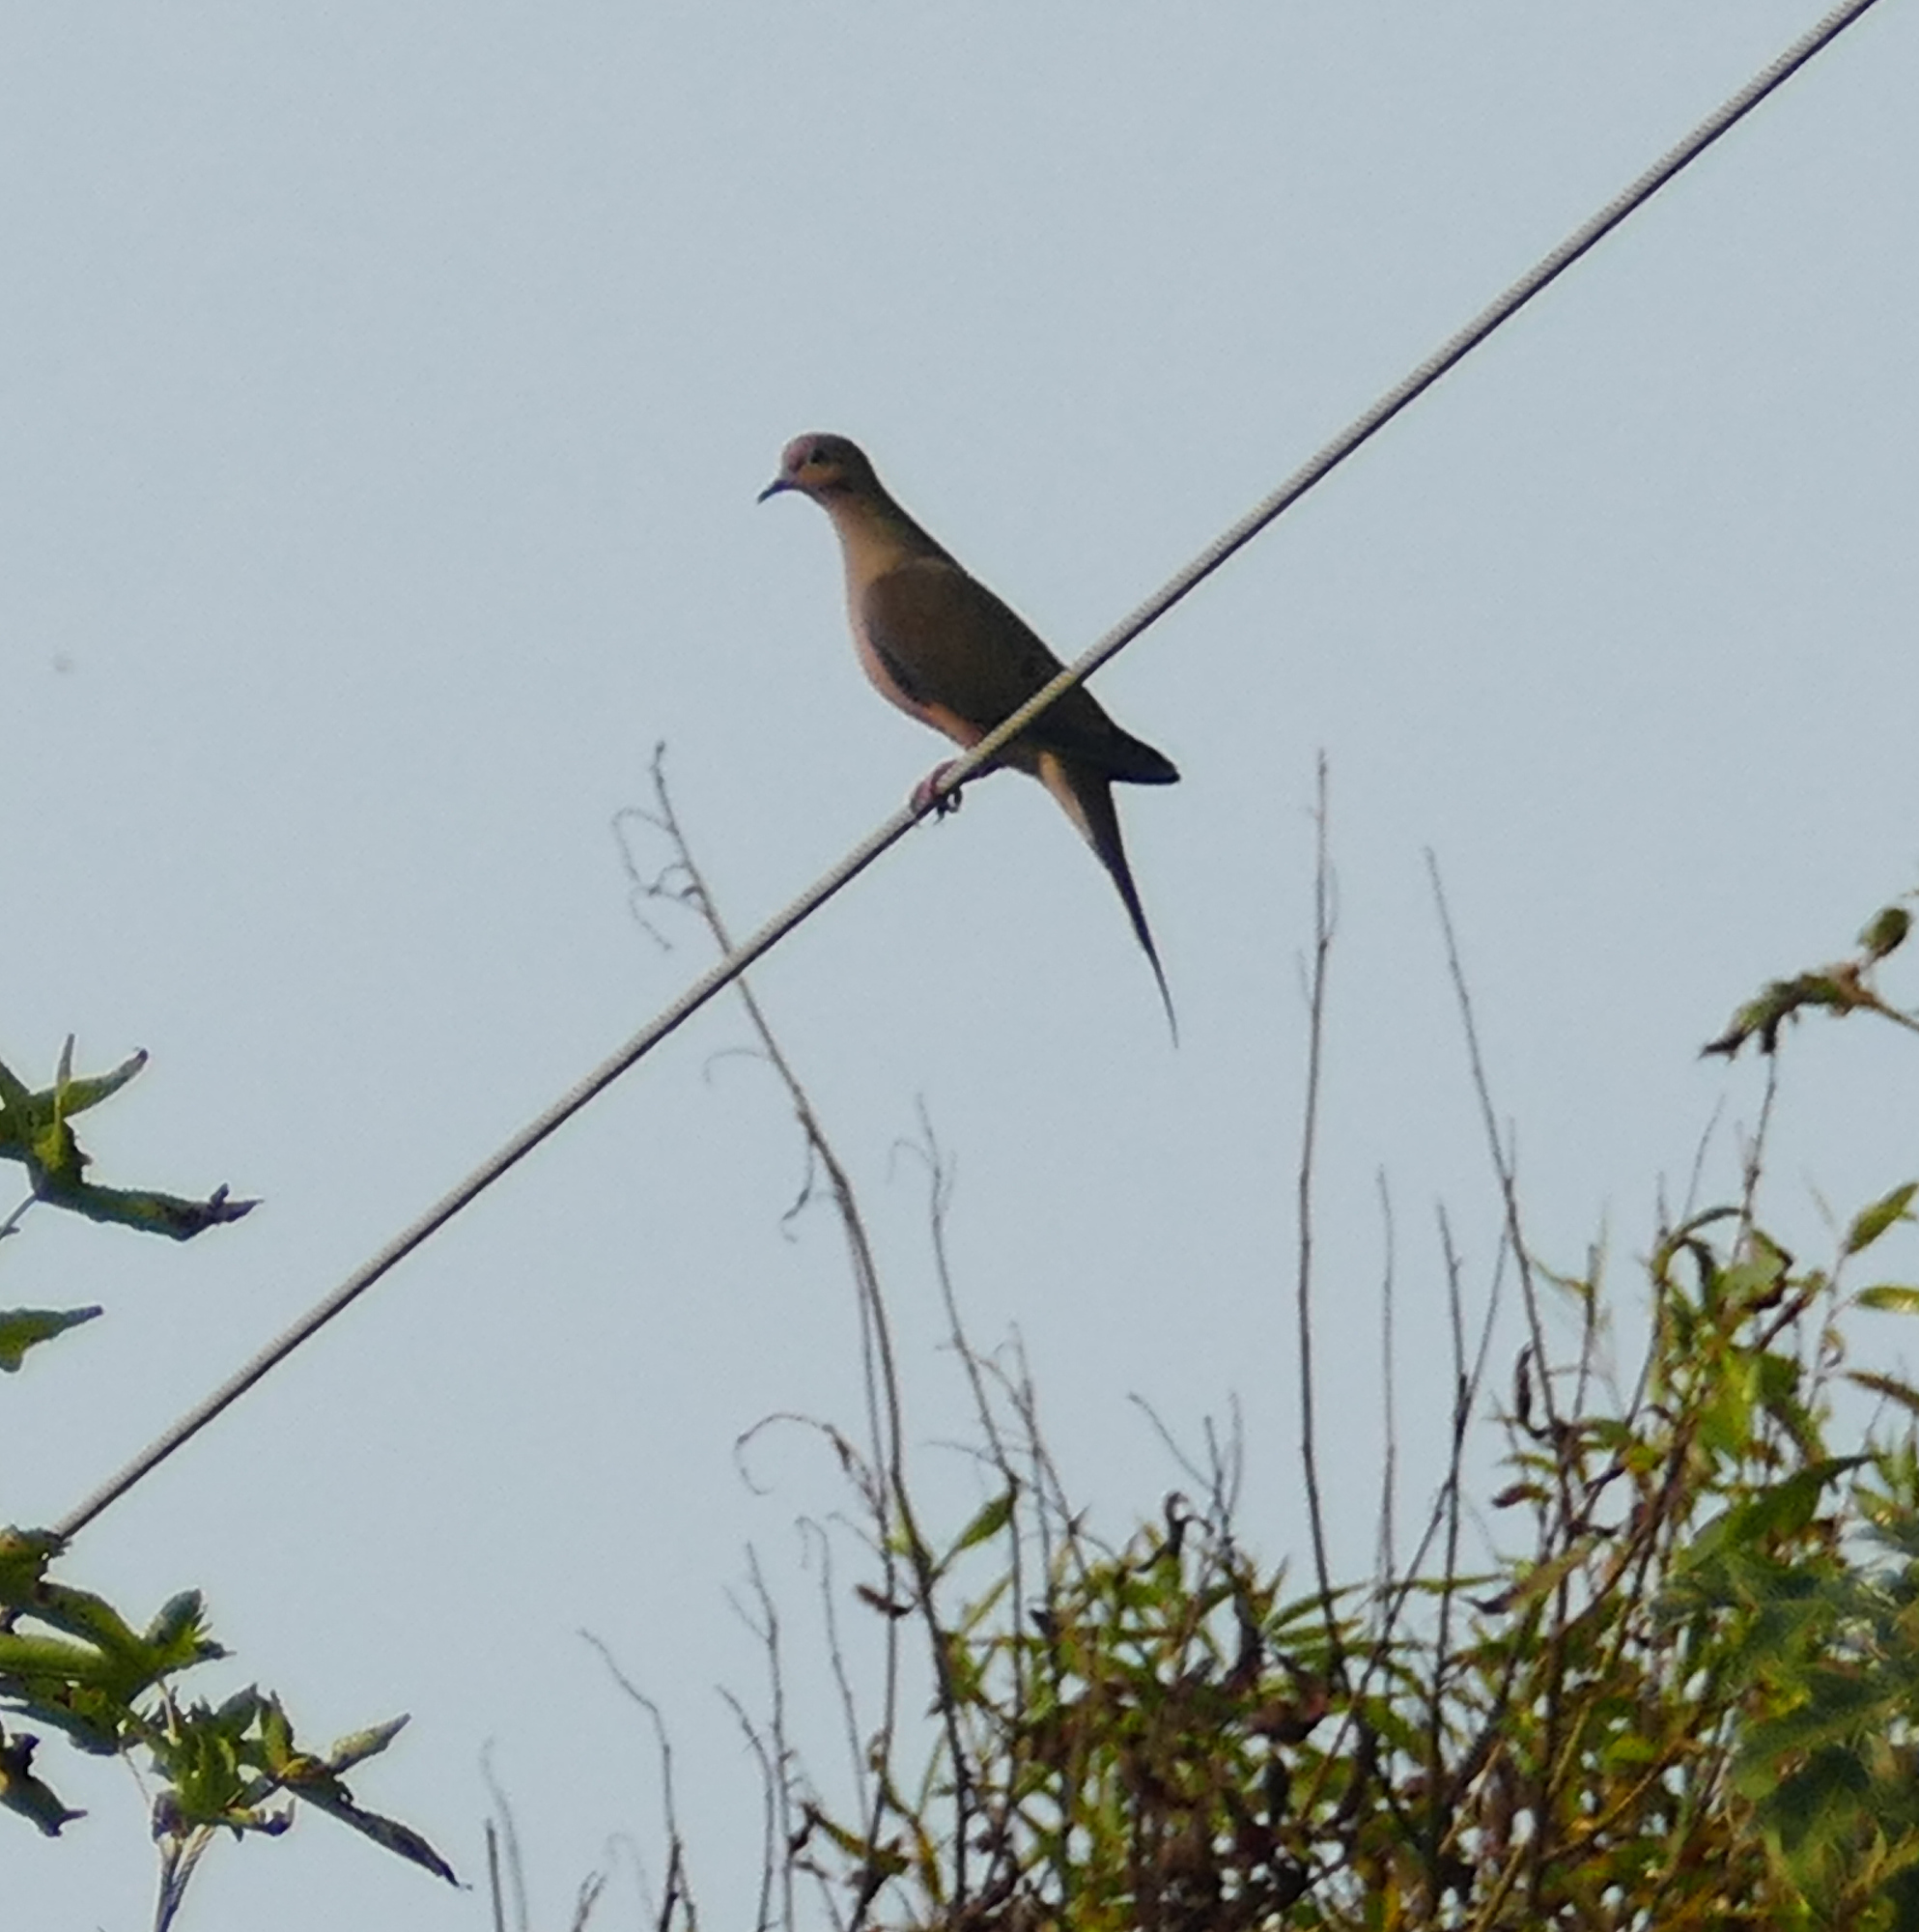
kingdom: Animalia
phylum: Chordata
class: Aves
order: Columbiformes
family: Columbidae
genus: Zenaida
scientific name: Zenaida macroura
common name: Mourning dove
